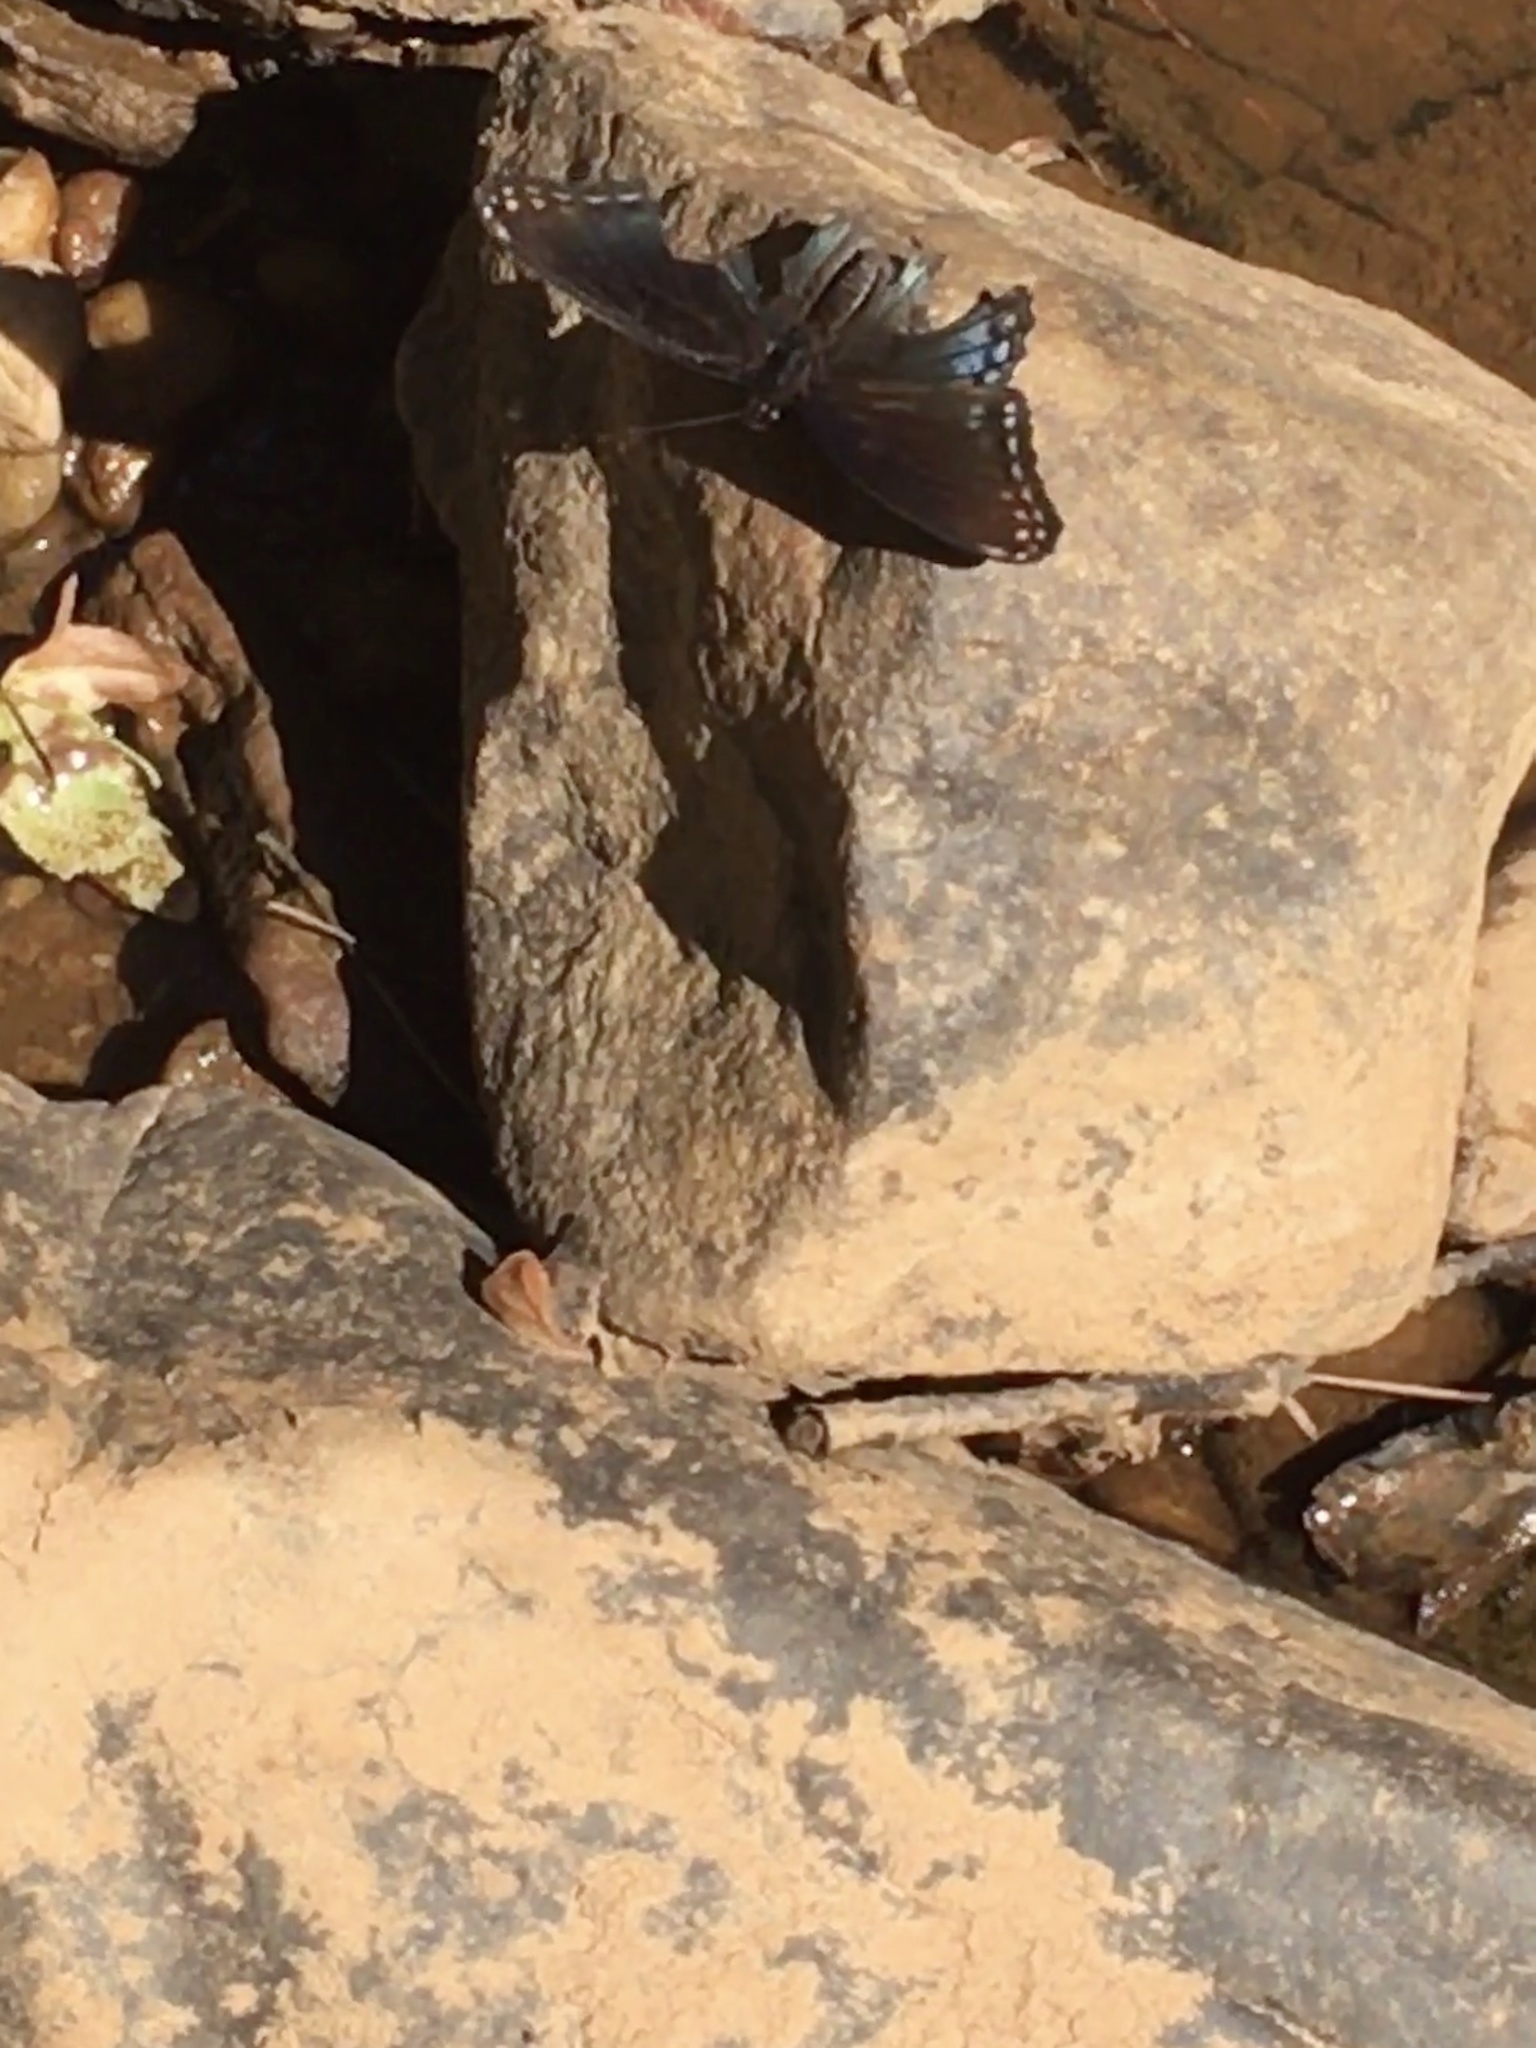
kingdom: Animalia
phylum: Arthropoda
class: Insecta
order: Lepidoptera
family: Nymphalidae
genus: Limenitis
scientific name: Limenitis astyanax
